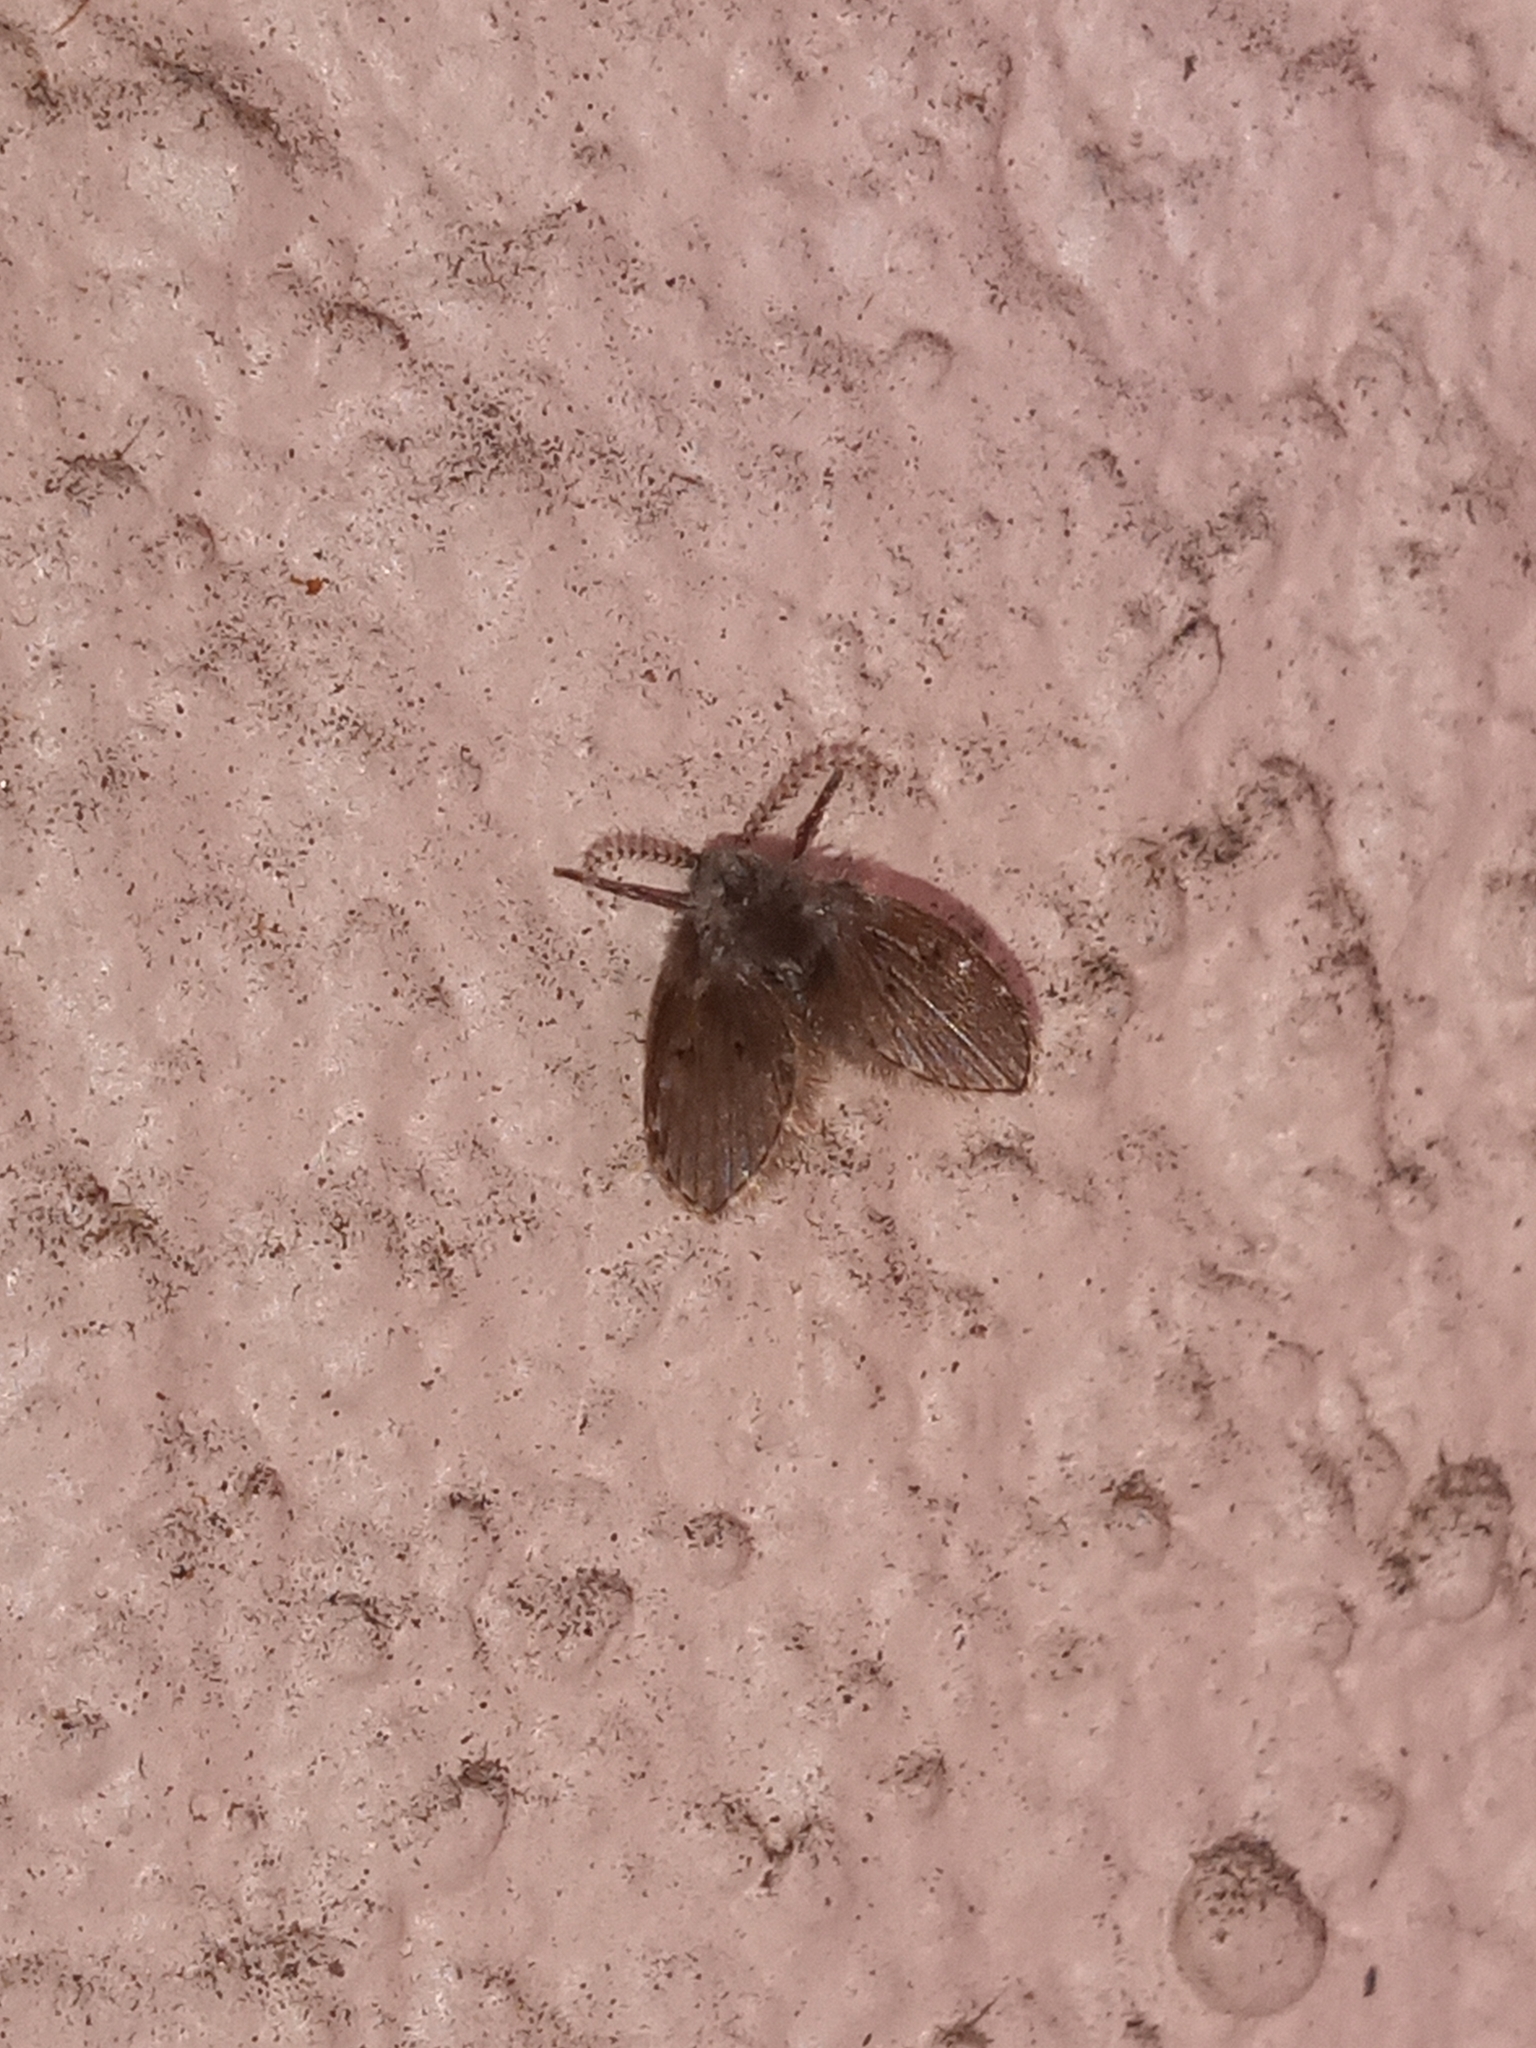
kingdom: Animalia
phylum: Arthropoda
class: Insecta
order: Diptera
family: Psychodidae
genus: Clogmia
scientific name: Clogmia albipunctatus
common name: White-spotted moth fly
